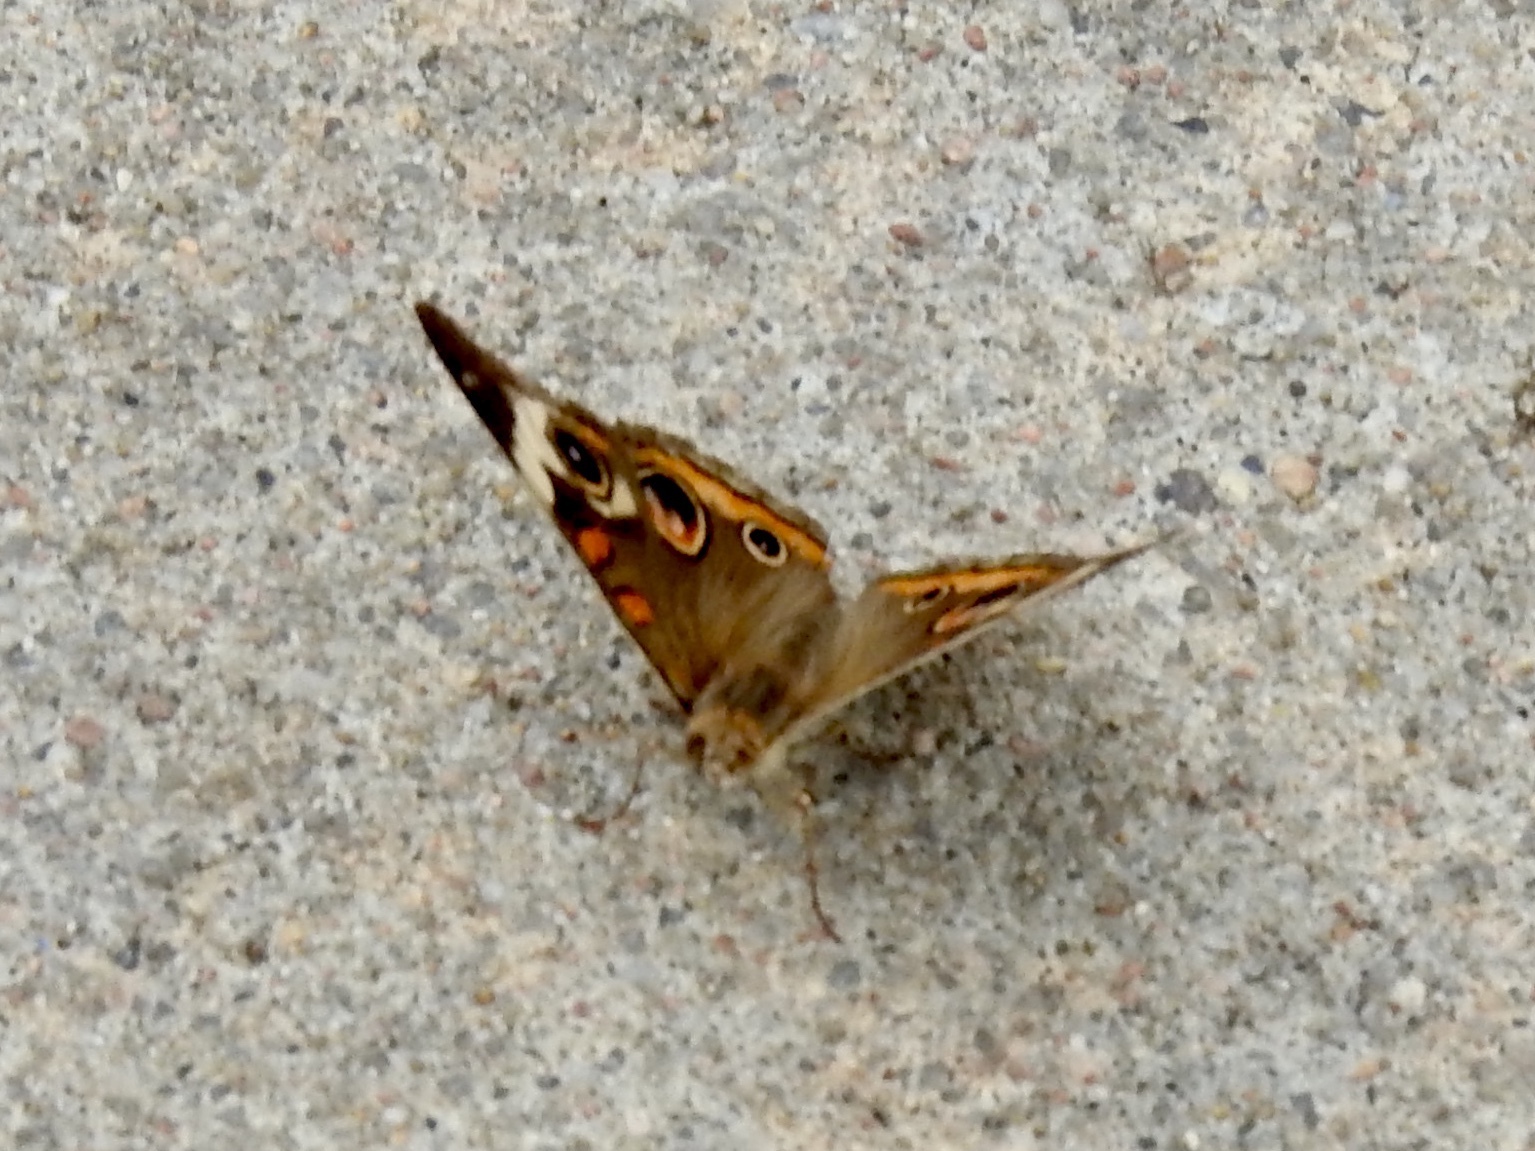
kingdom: Animalia
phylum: Arthropoda
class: Insecta
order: Lepidoptera
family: Nymphalidae
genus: Junonia
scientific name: Junonia coenia
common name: Common buckeye
